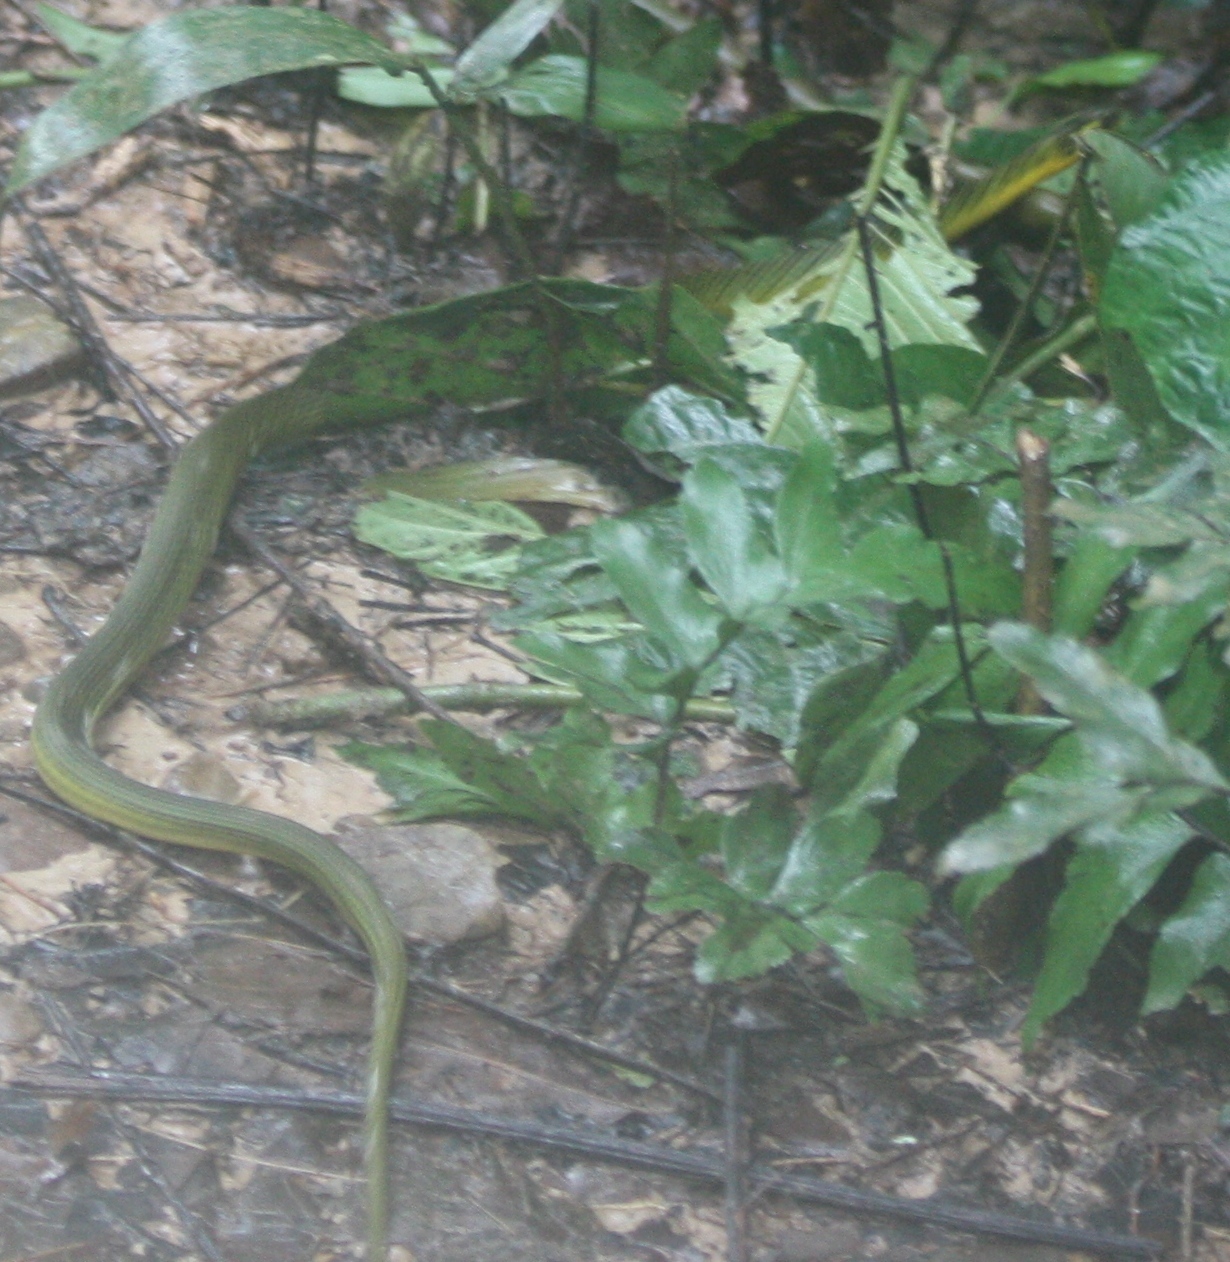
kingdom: Animalia
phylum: Chordata
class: Squamata
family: Colubridae
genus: Erythrolamprus
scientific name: Erythrolamprus reginae
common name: Royal ground snake
